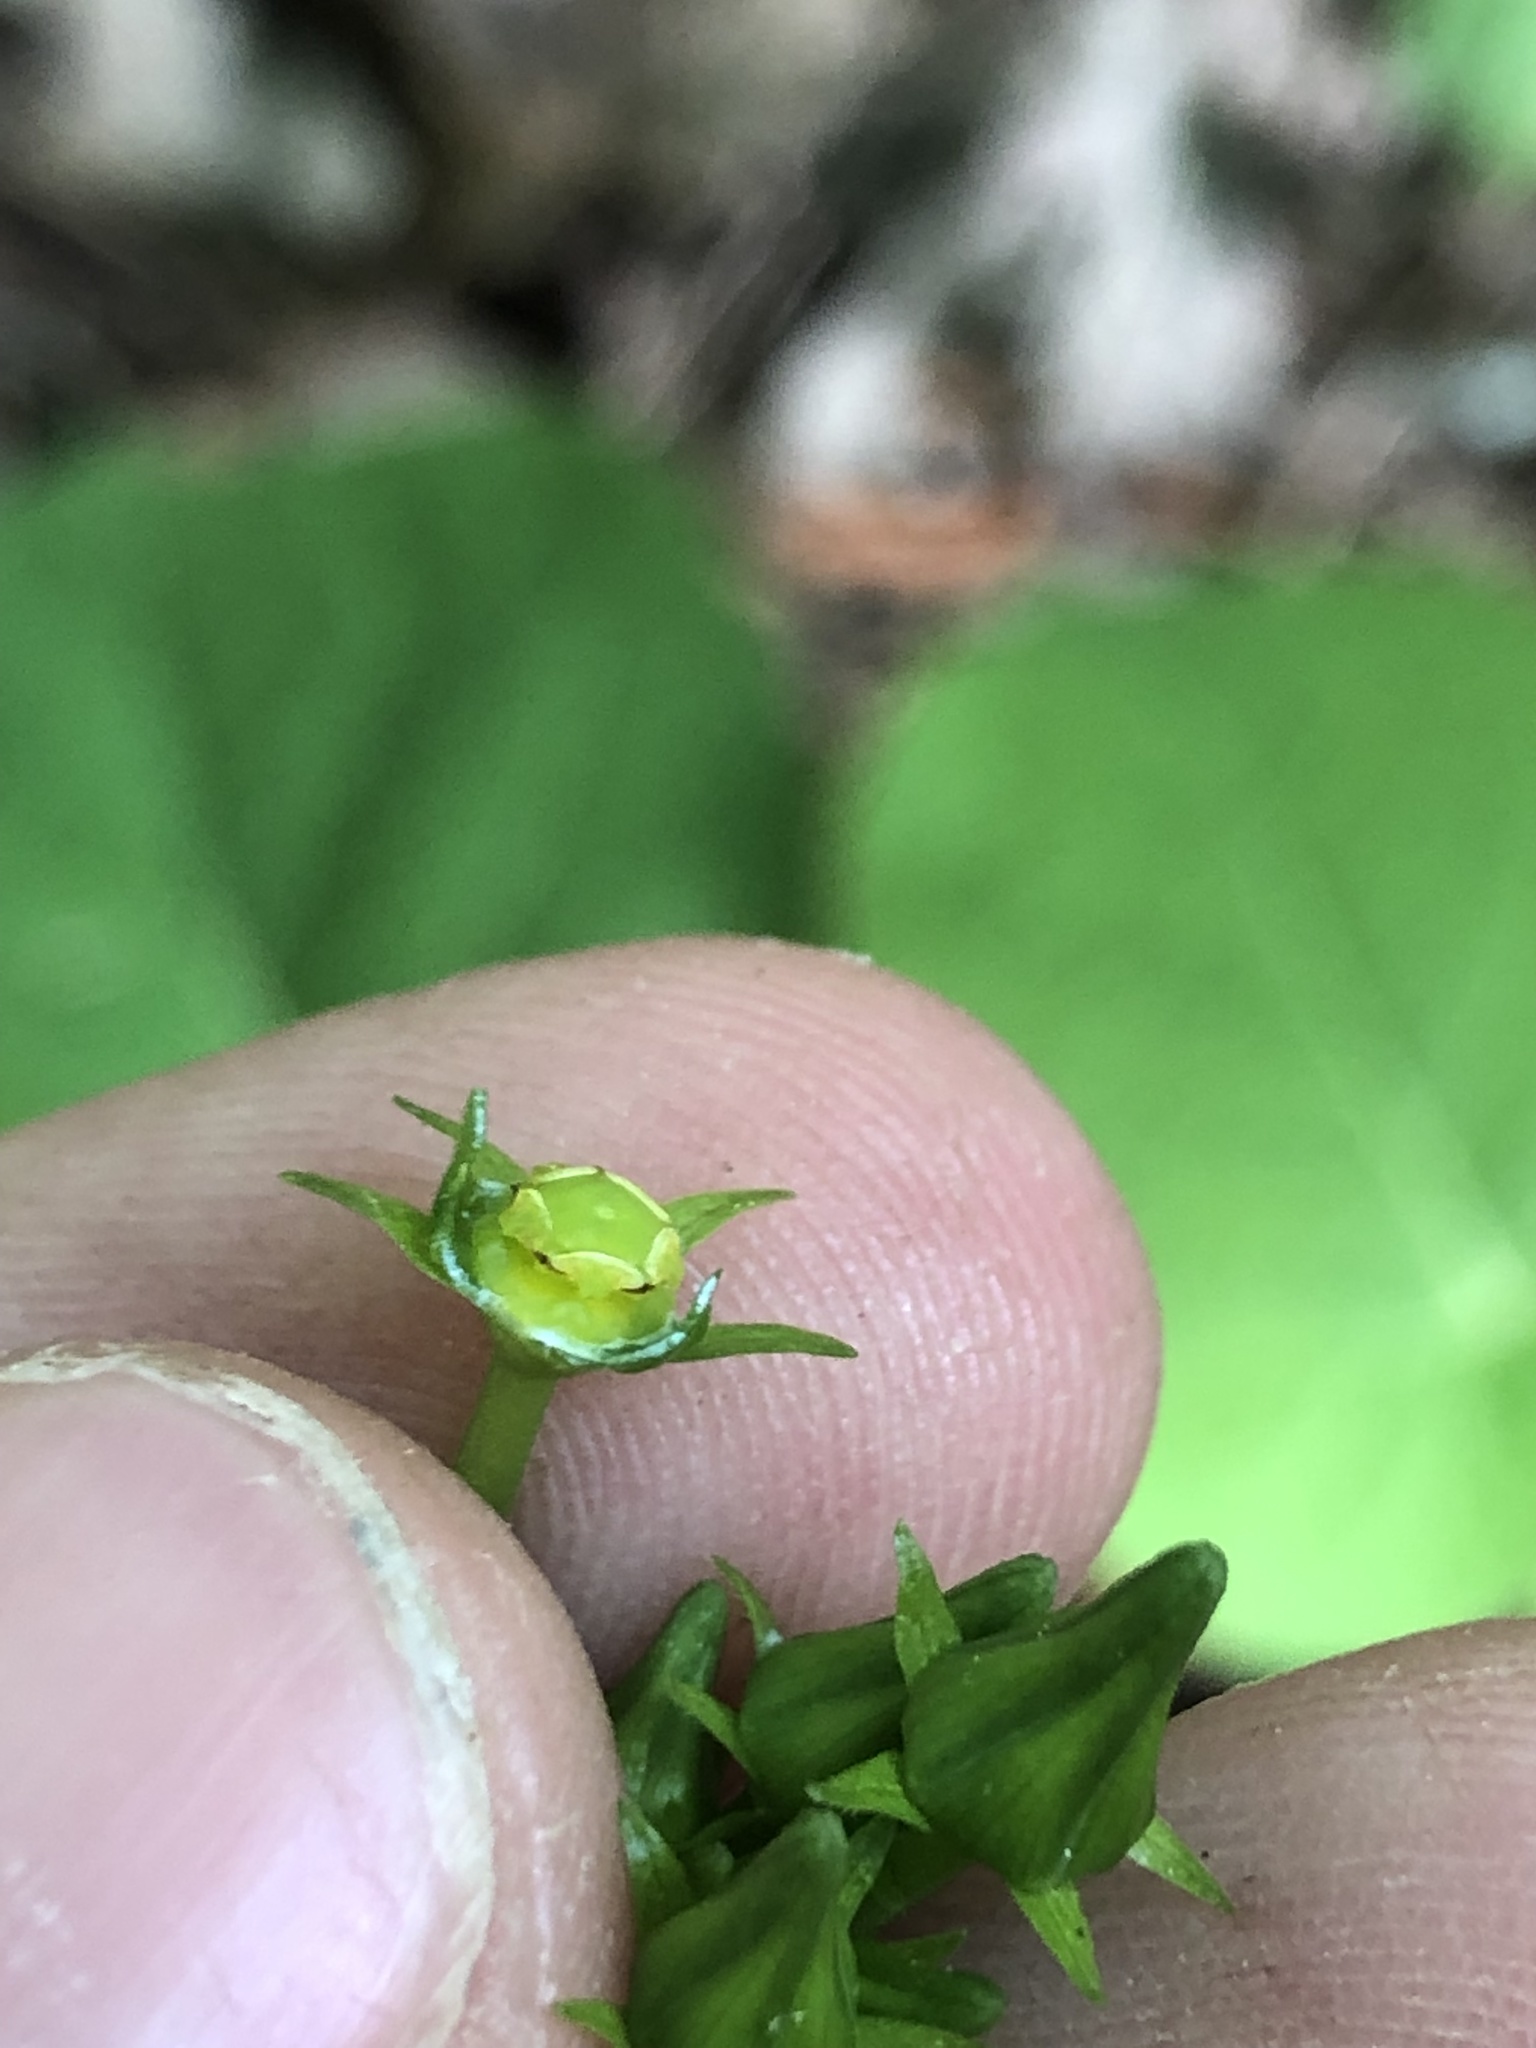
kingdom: Plantae
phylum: Tracheophyta
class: Magnoliopsida
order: Gentianales
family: Apocynaceae
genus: Gonolobus
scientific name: Gonolobus suberosus
